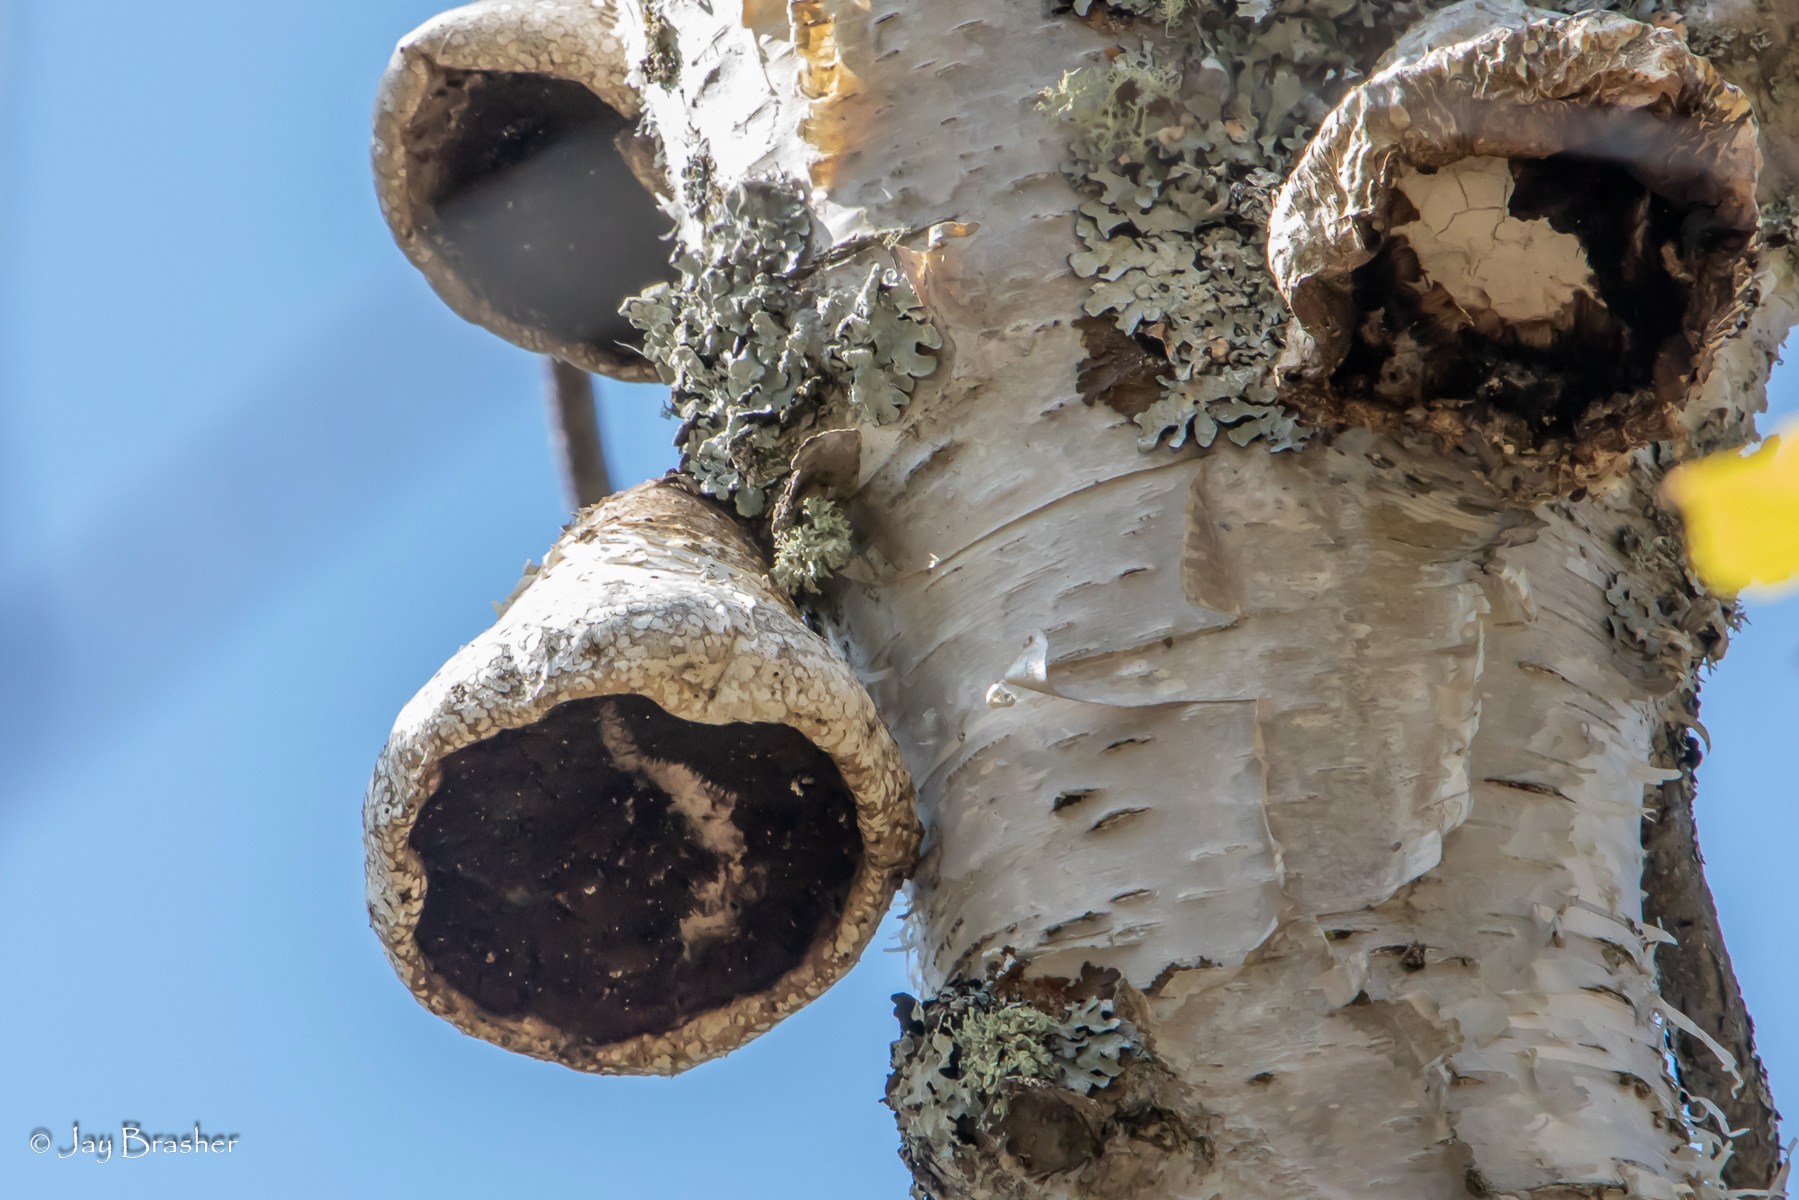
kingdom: Fungi
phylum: Basidiomycota
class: Agaricomycetes
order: Polyporales
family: Fomitopsidaceae
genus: Fomitopsis
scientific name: Fomitopsis betulina
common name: Birch polypore
